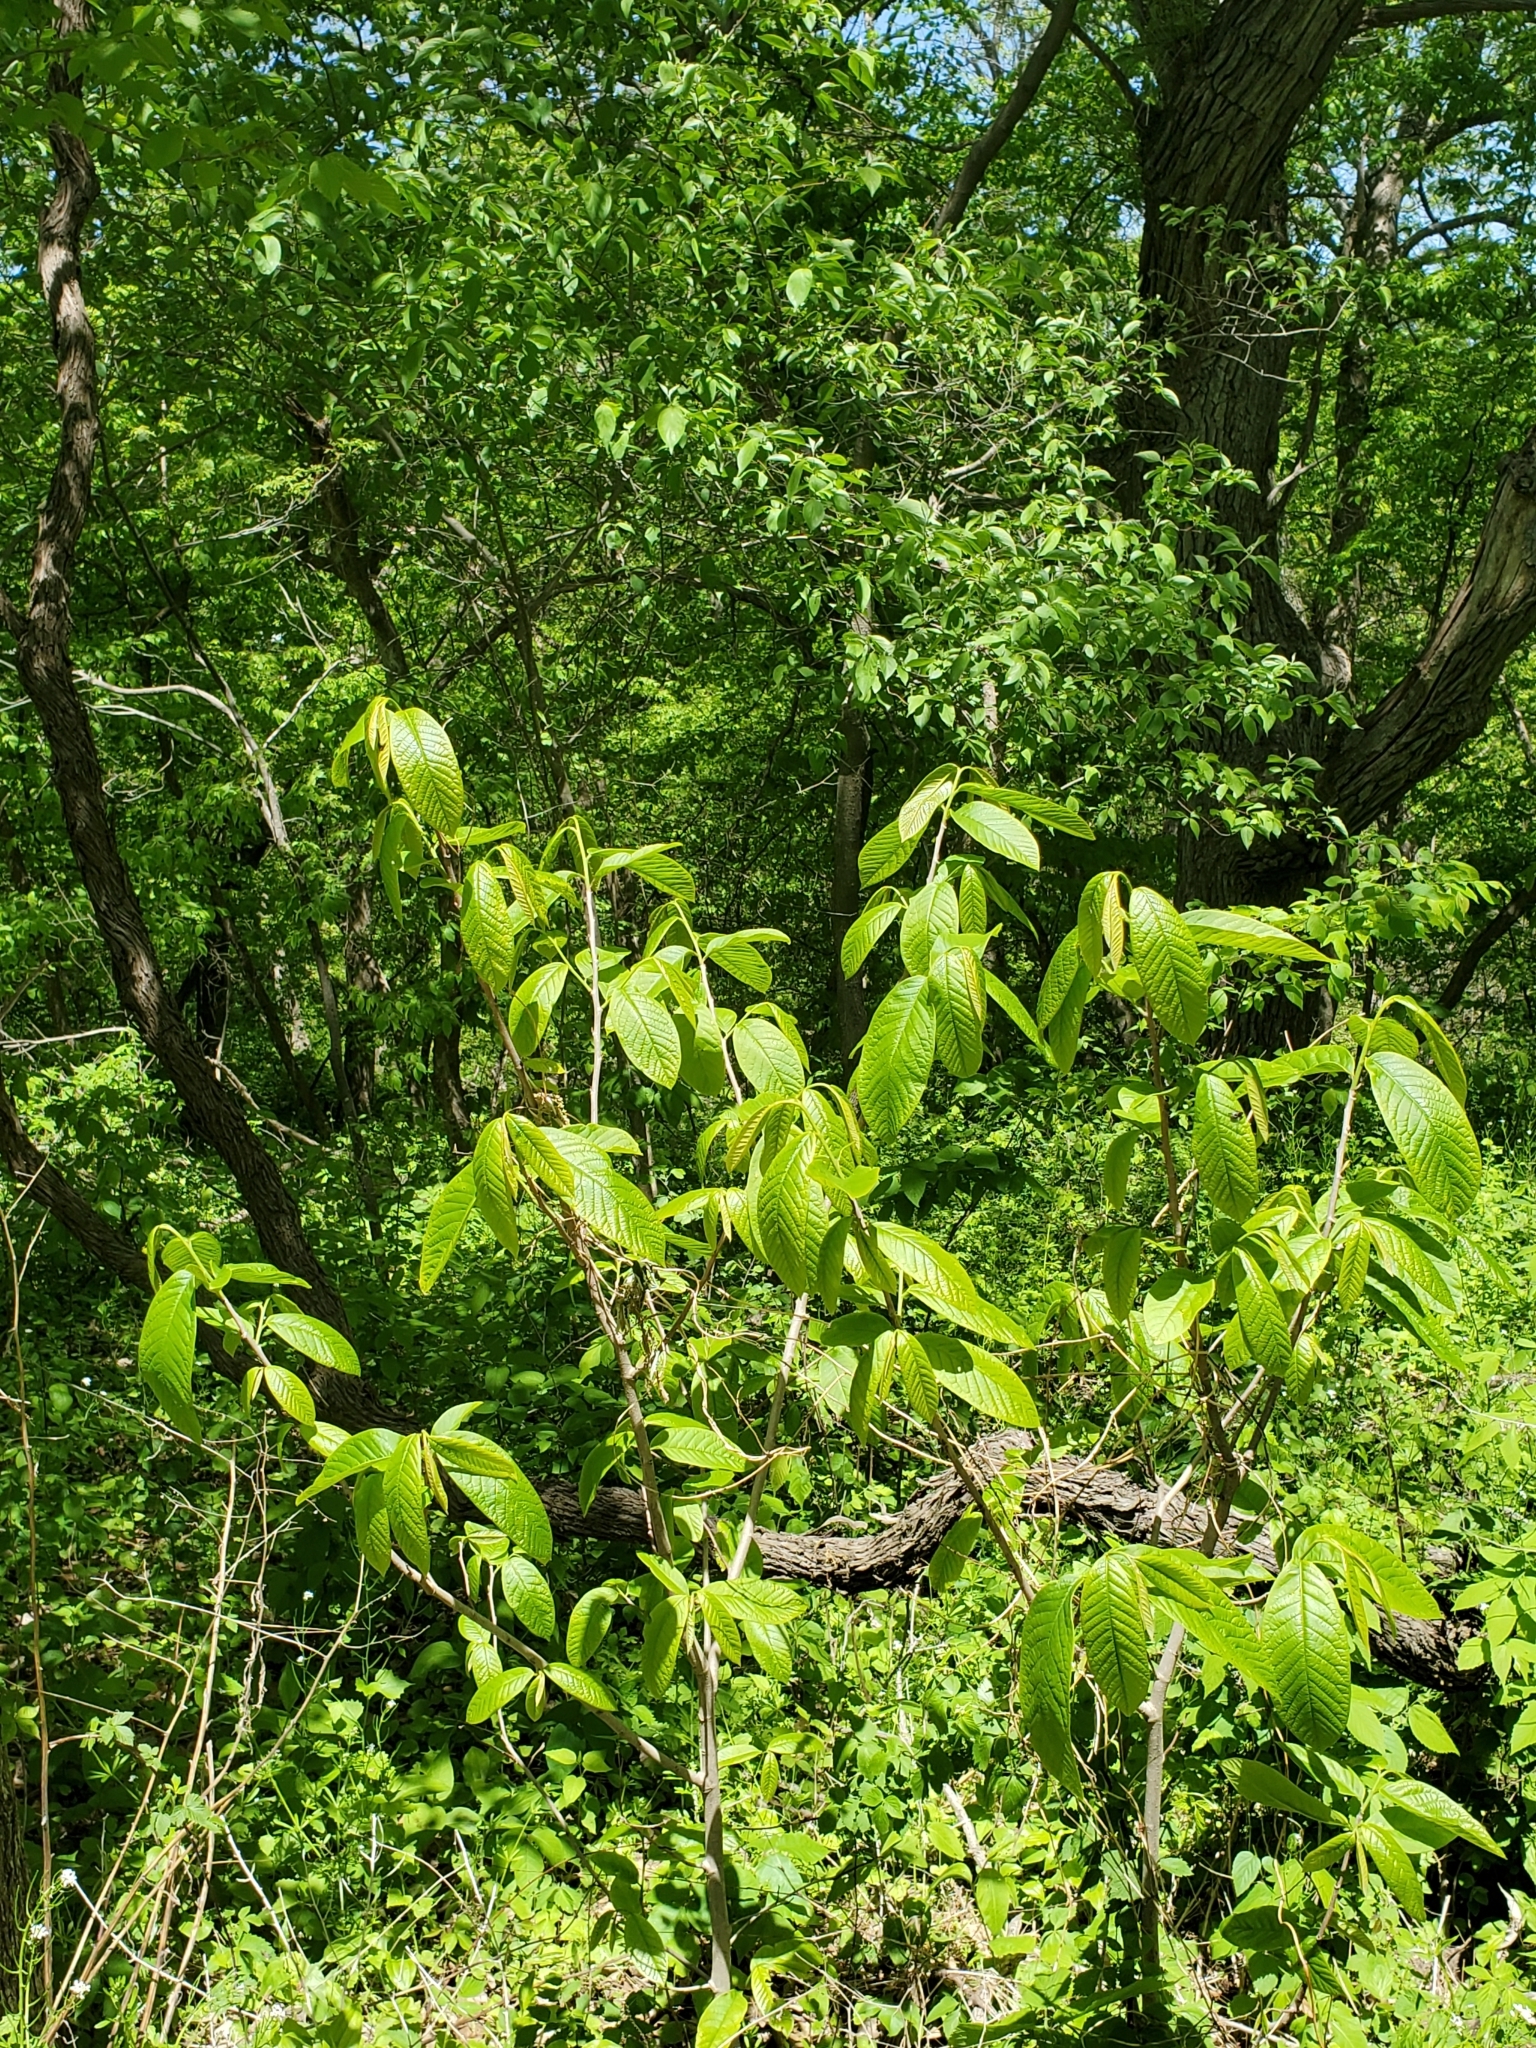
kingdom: Plantae
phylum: Tracheophyta
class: Magnoliopsida
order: Magnoliales
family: Annonaceae
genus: Asimina
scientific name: Asimina triloba
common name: Dog-banana
